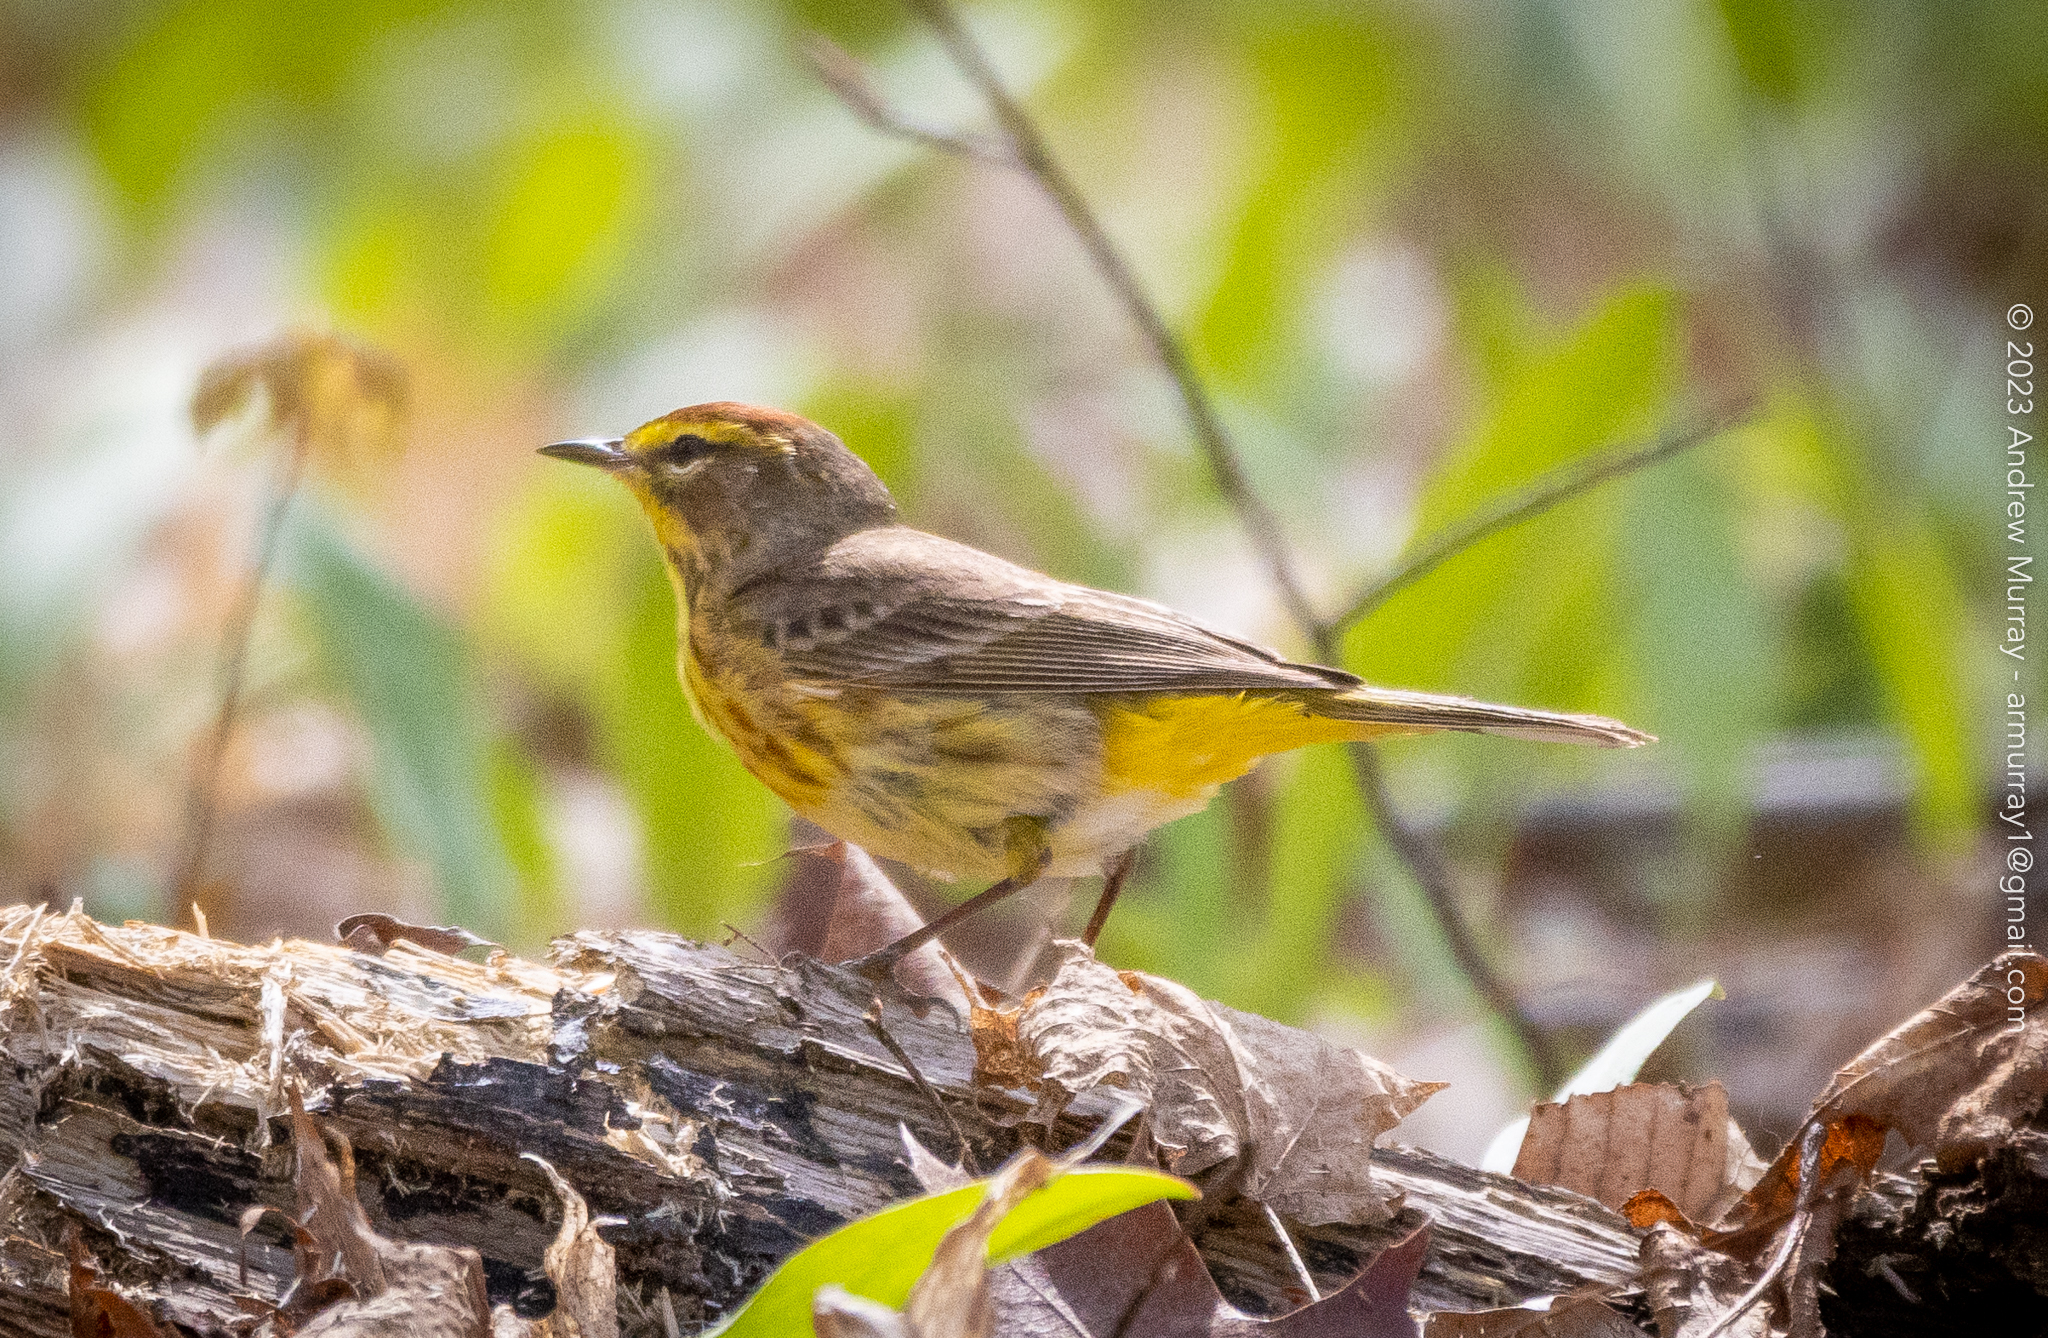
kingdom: Animalia
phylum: Chordata
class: Aves
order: Passeriformes
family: Parulidae
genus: Setophaga
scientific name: Setophaga palmarum
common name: Palm warbler
